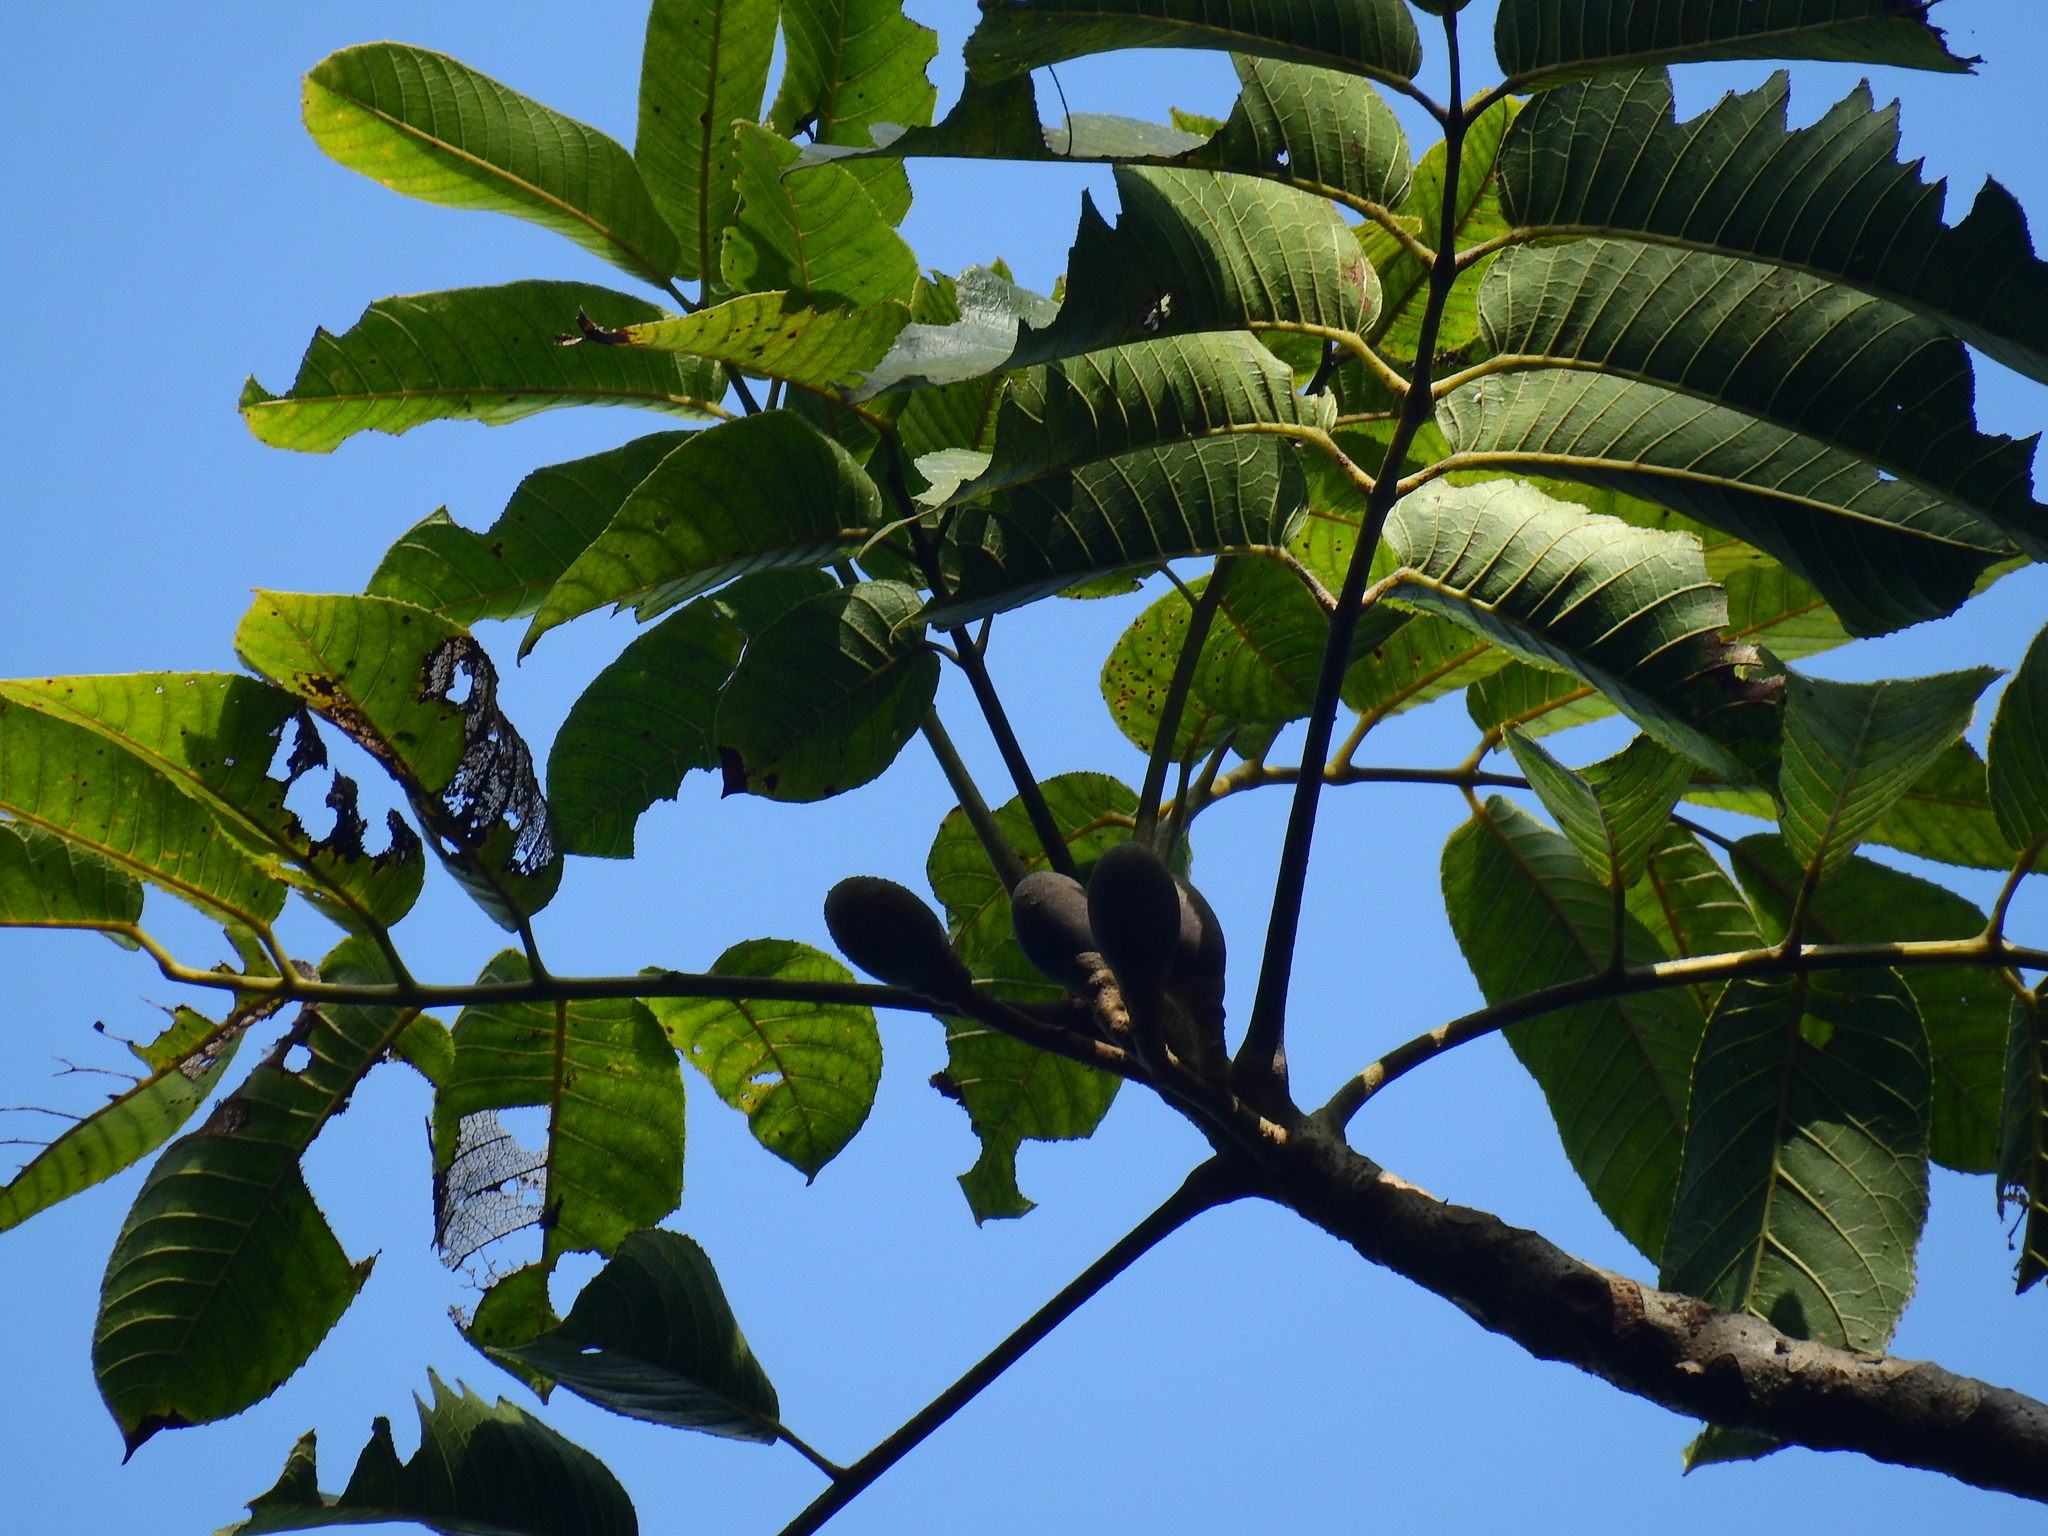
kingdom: Plantae
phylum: Tracheophyta
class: Magnoliopsida
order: Sapindales
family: Burseraceae
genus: Canarium
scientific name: Canarium euphyllum
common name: White dhup
